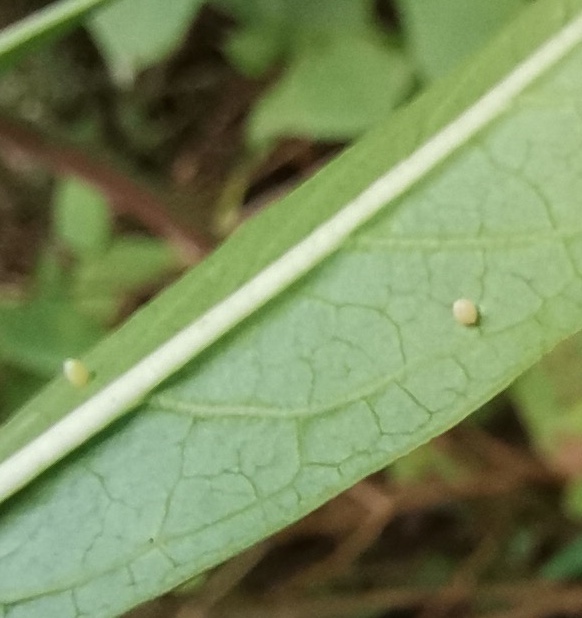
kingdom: Animalia
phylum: Arthropoda
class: Insecta
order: Lepidoptera
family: Nymphalidae
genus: Danaus
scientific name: Danaus plexippus
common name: Monarch
